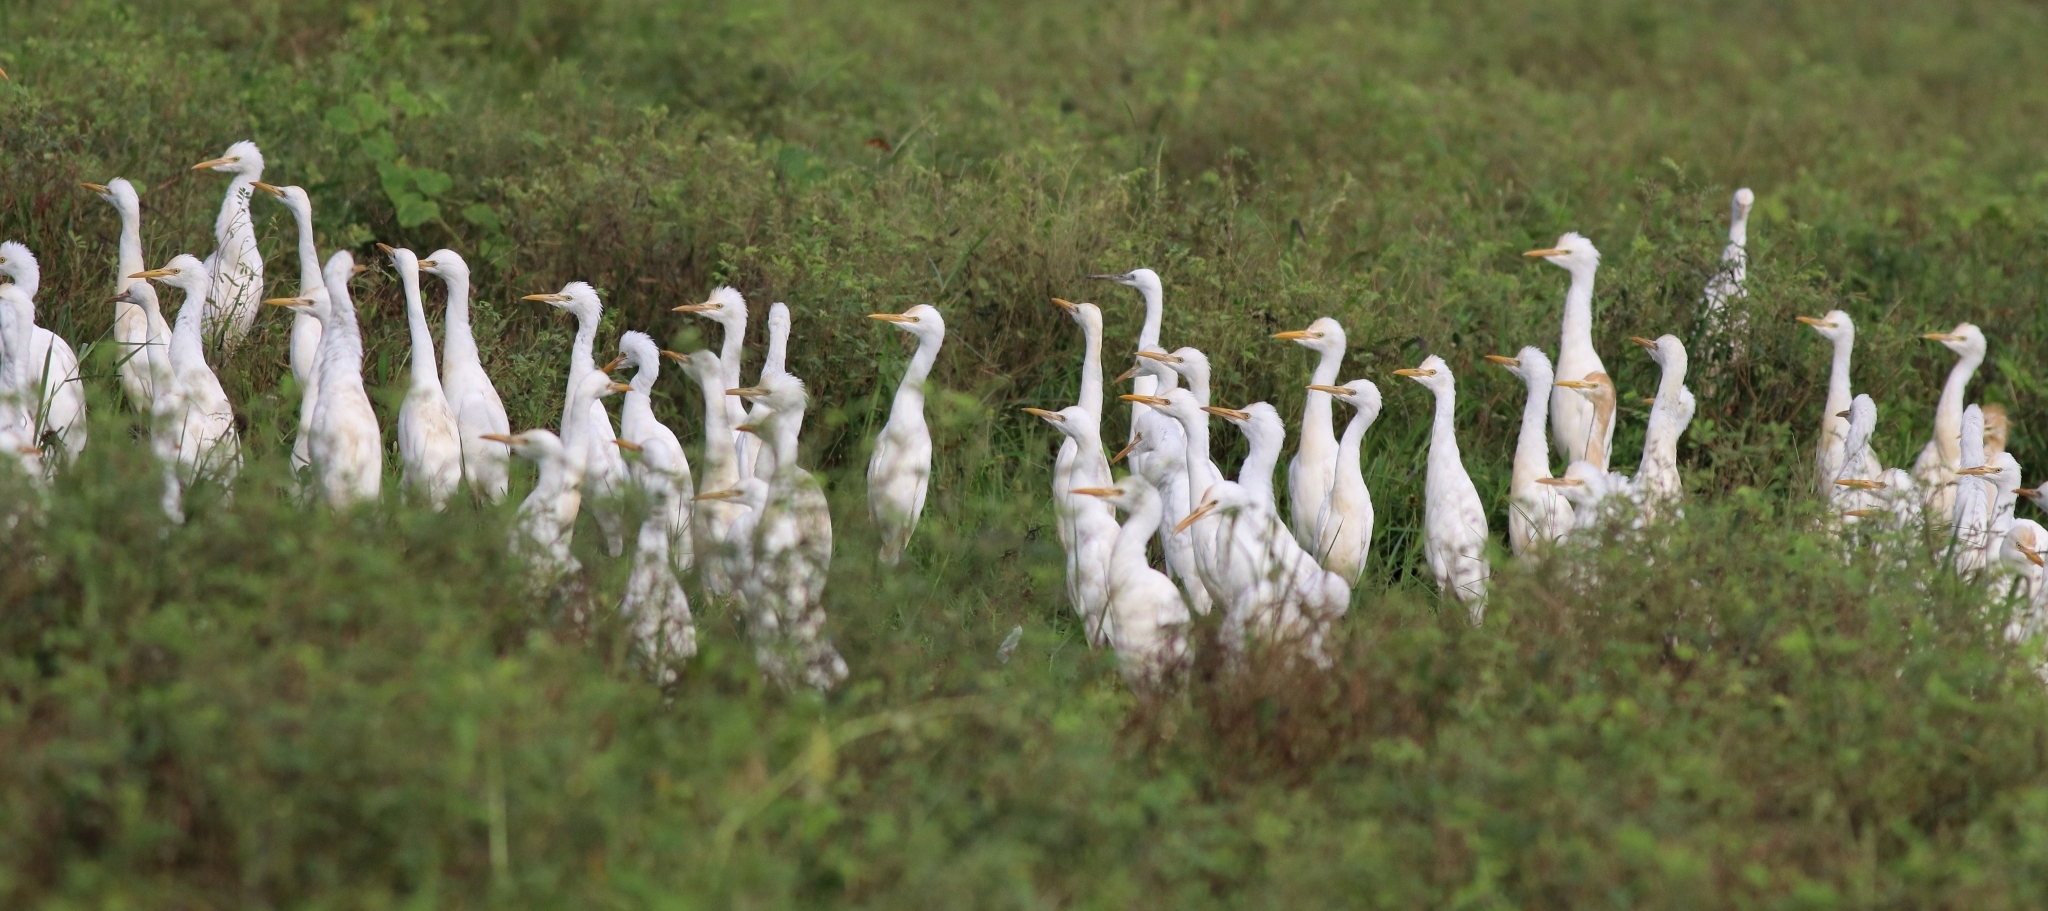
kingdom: Animalia
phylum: Chordata
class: Aves
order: Pelecaniformes
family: Ardeidae
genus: Bubulcus
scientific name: Bubulcus coromandus
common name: Eastern cattle egret
